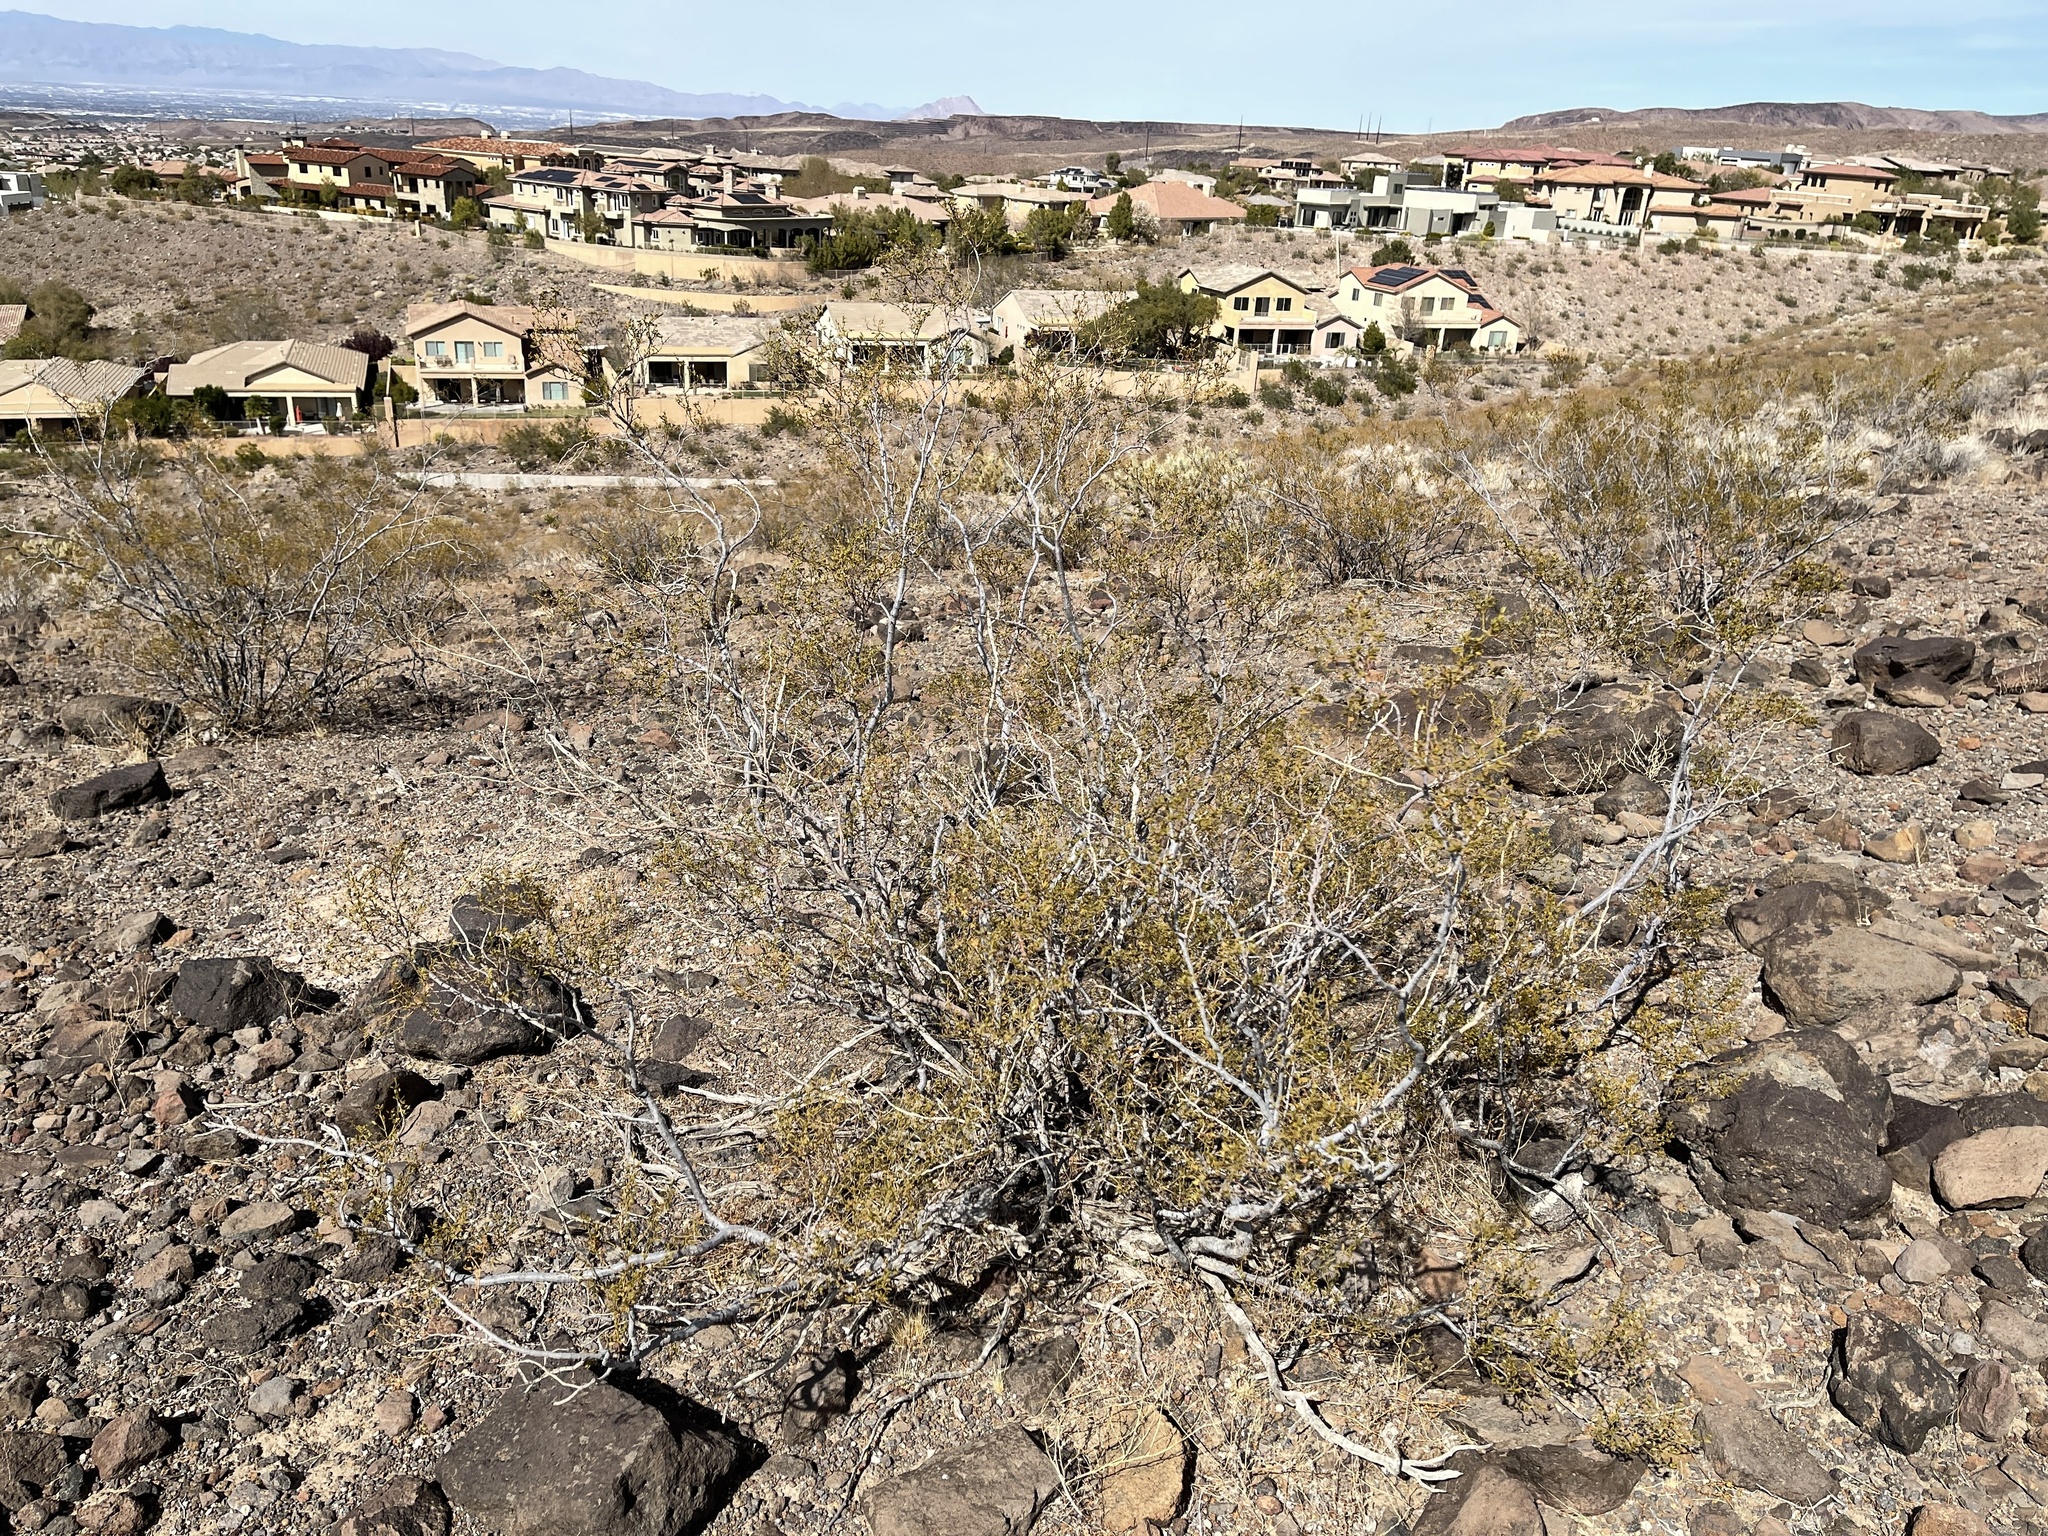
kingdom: Plantae
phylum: Tracheophyta
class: Magnoliopsida
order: Zygophyllales
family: Zygophyllaceae
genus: Larrea
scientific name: Larrea tridentata
